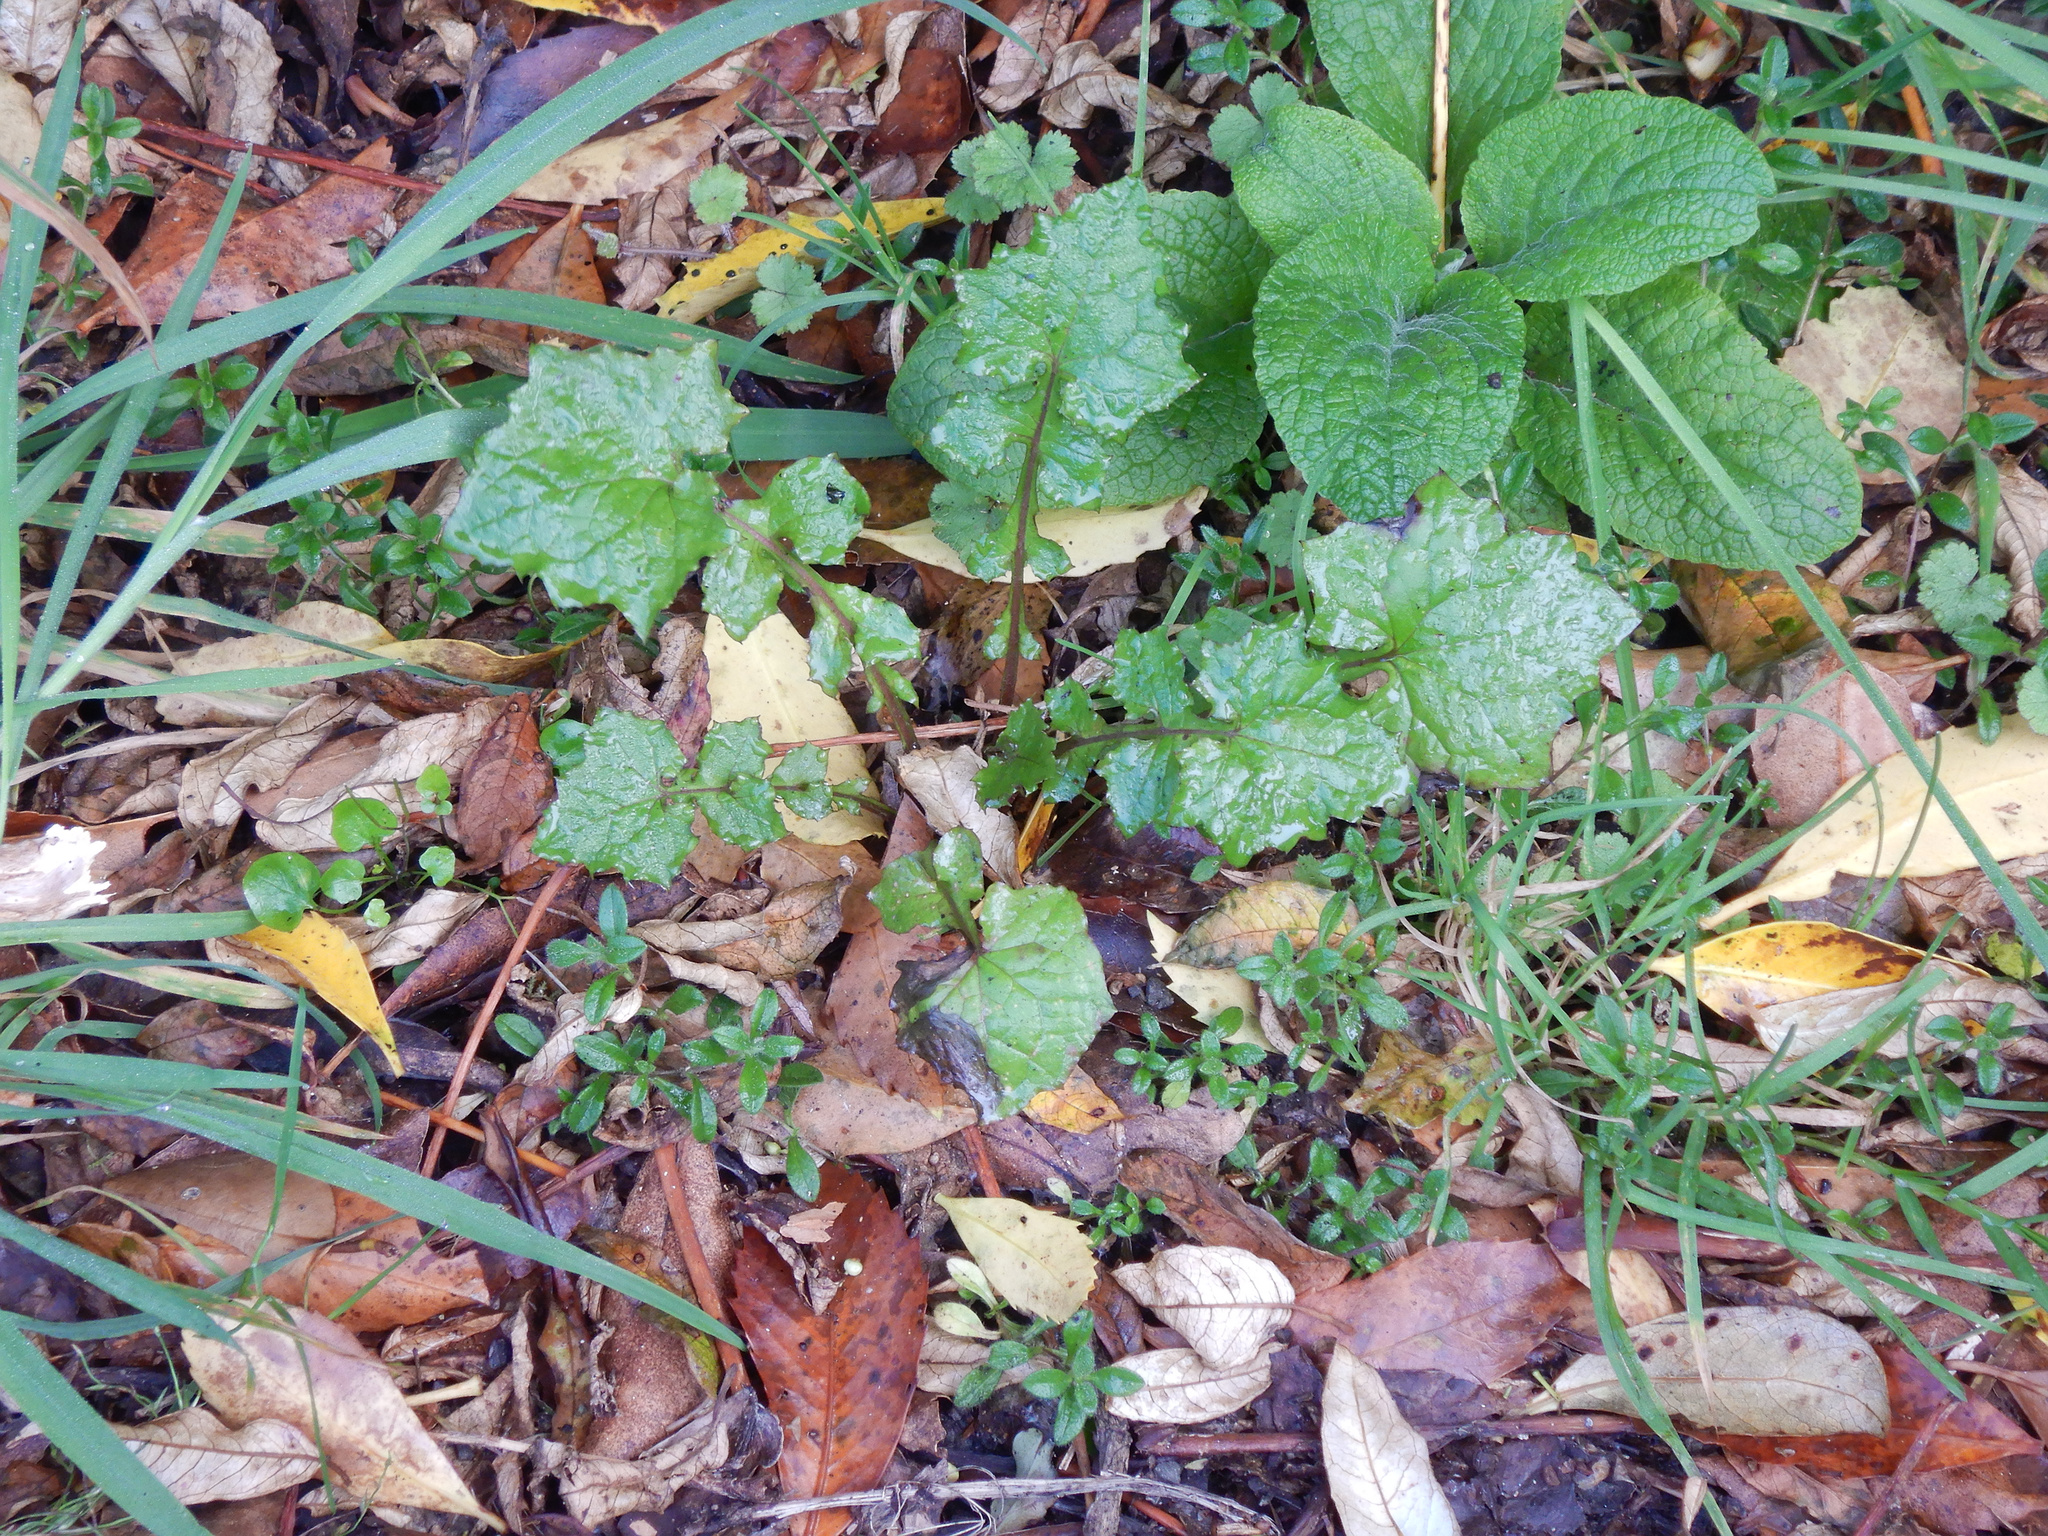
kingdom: Plantae
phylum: Tracheophyta
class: Magnoliopsida
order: Asterales
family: Asteraceae
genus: Mycelis
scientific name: Mycelis muralis
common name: Wall lettuce
